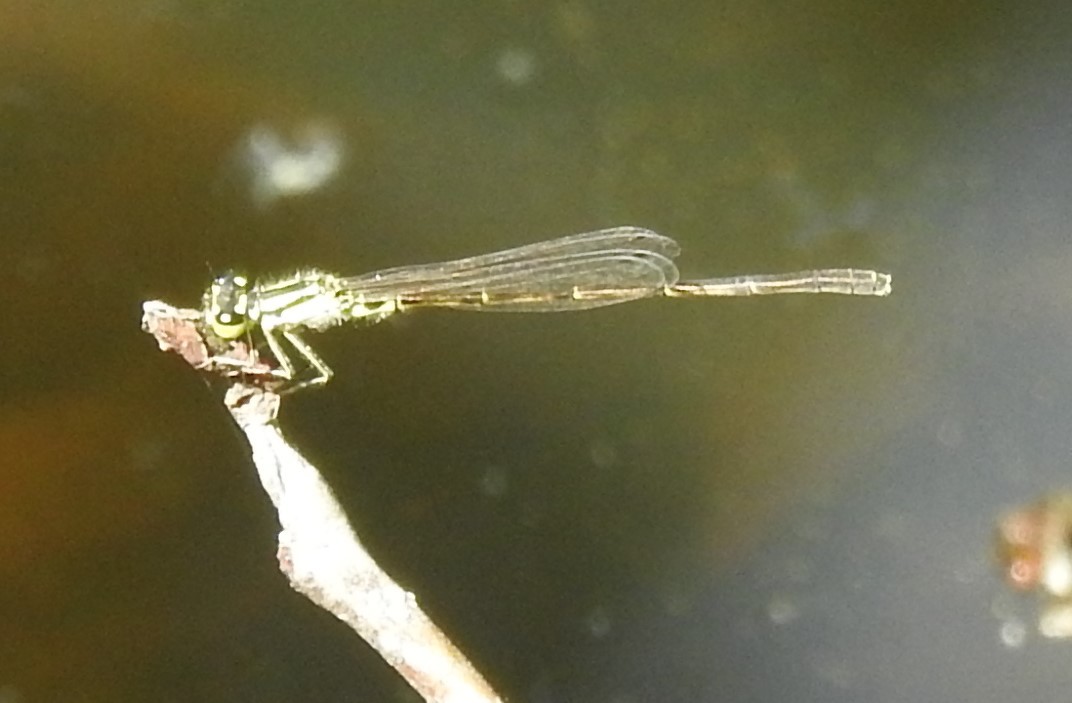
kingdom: Animalia
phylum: Arthropoda
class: Insecta
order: Odonata
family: Coenagrionidae
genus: Ischnura
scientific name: Ischnura posita
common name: Fragile forktail
